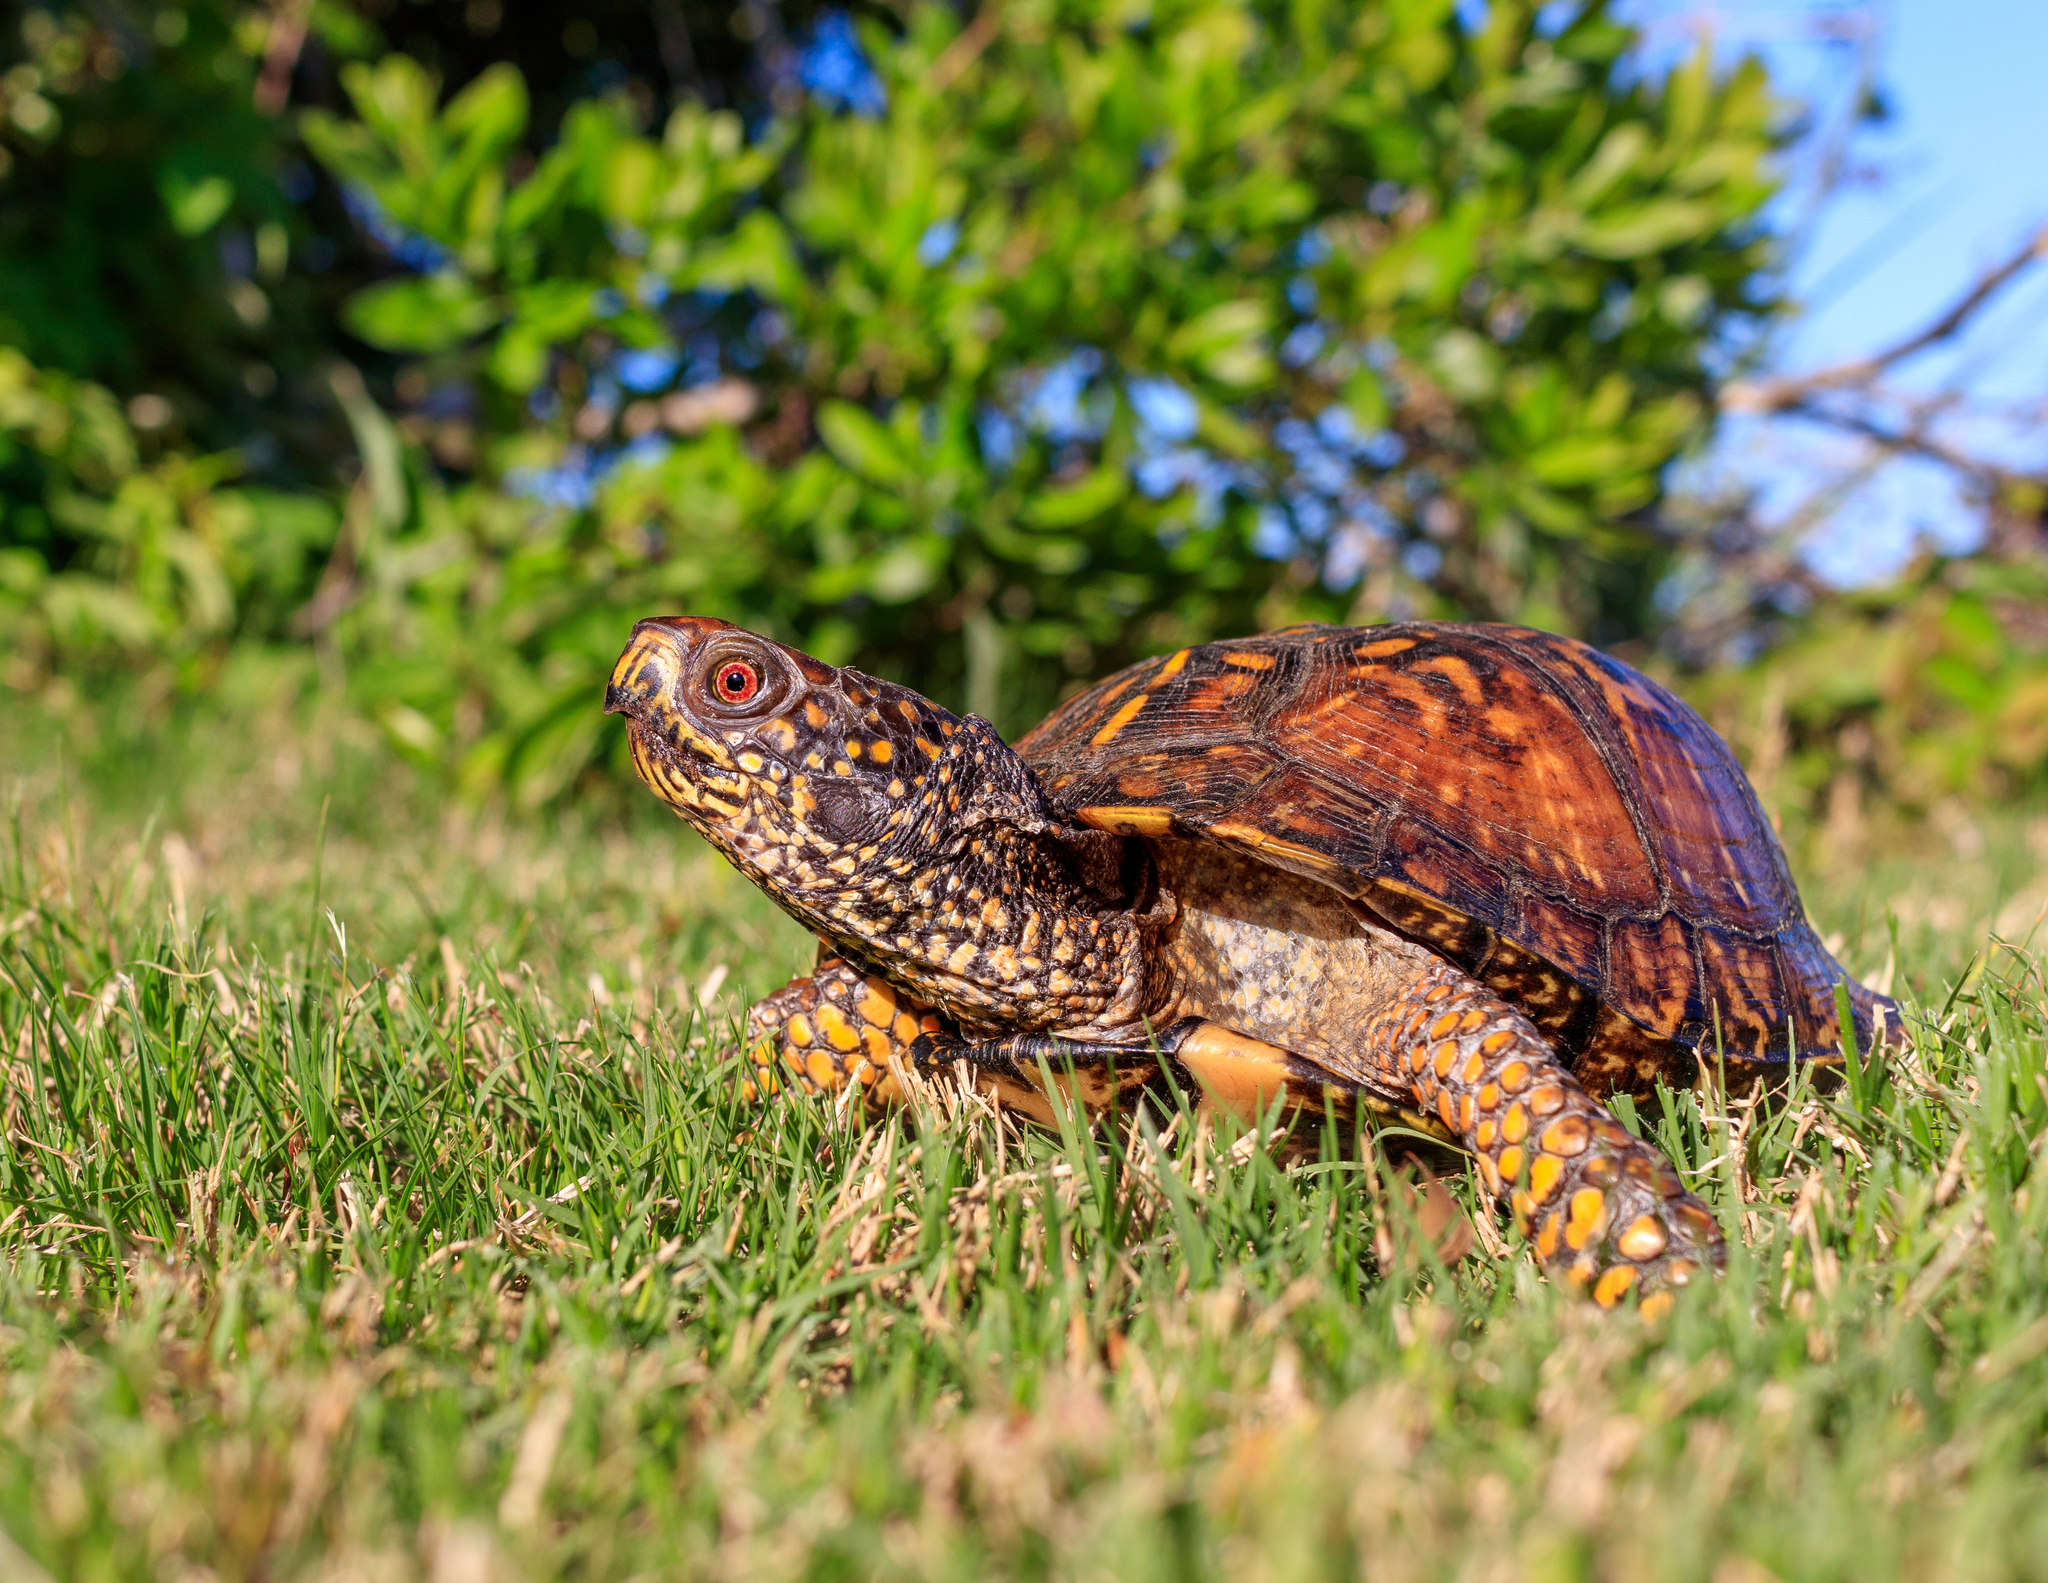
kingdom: Animalia
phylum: Chordata
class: Testudines
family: Emydidae
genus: Terrapene
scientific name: Terrapene carolina
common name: Common box turtle
